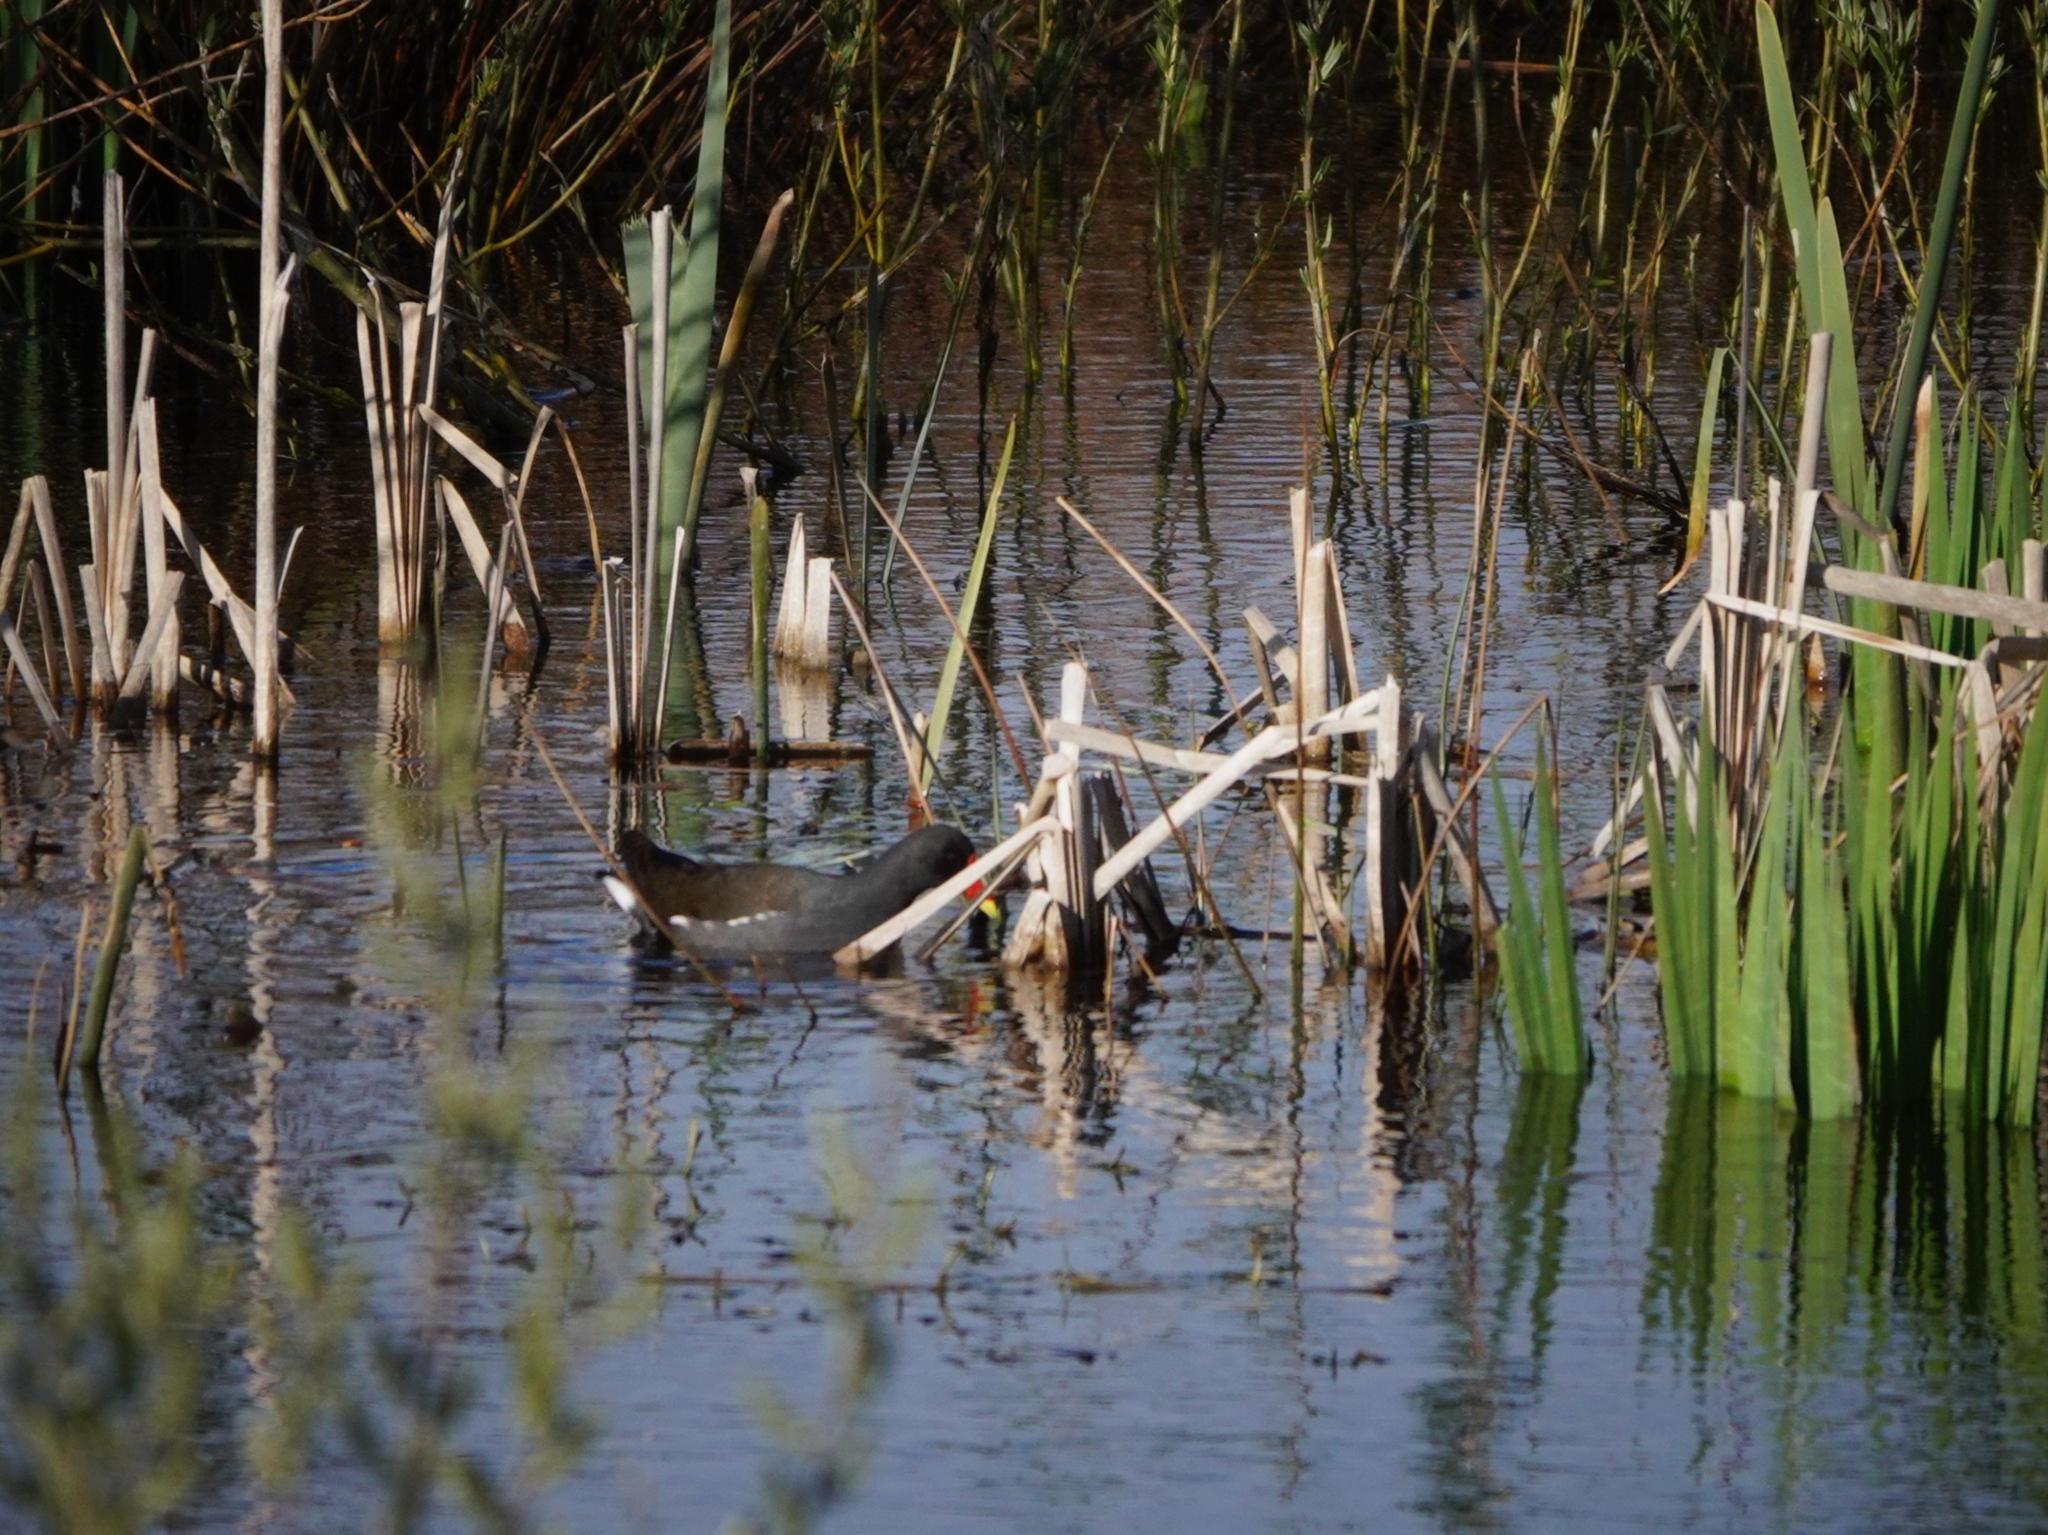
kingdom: Animalia
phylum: Chordata
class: Aves
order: Gruiformes
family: Rallidae
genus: Gallinula
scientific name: Gallinula chloropus
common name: Common moorhen
